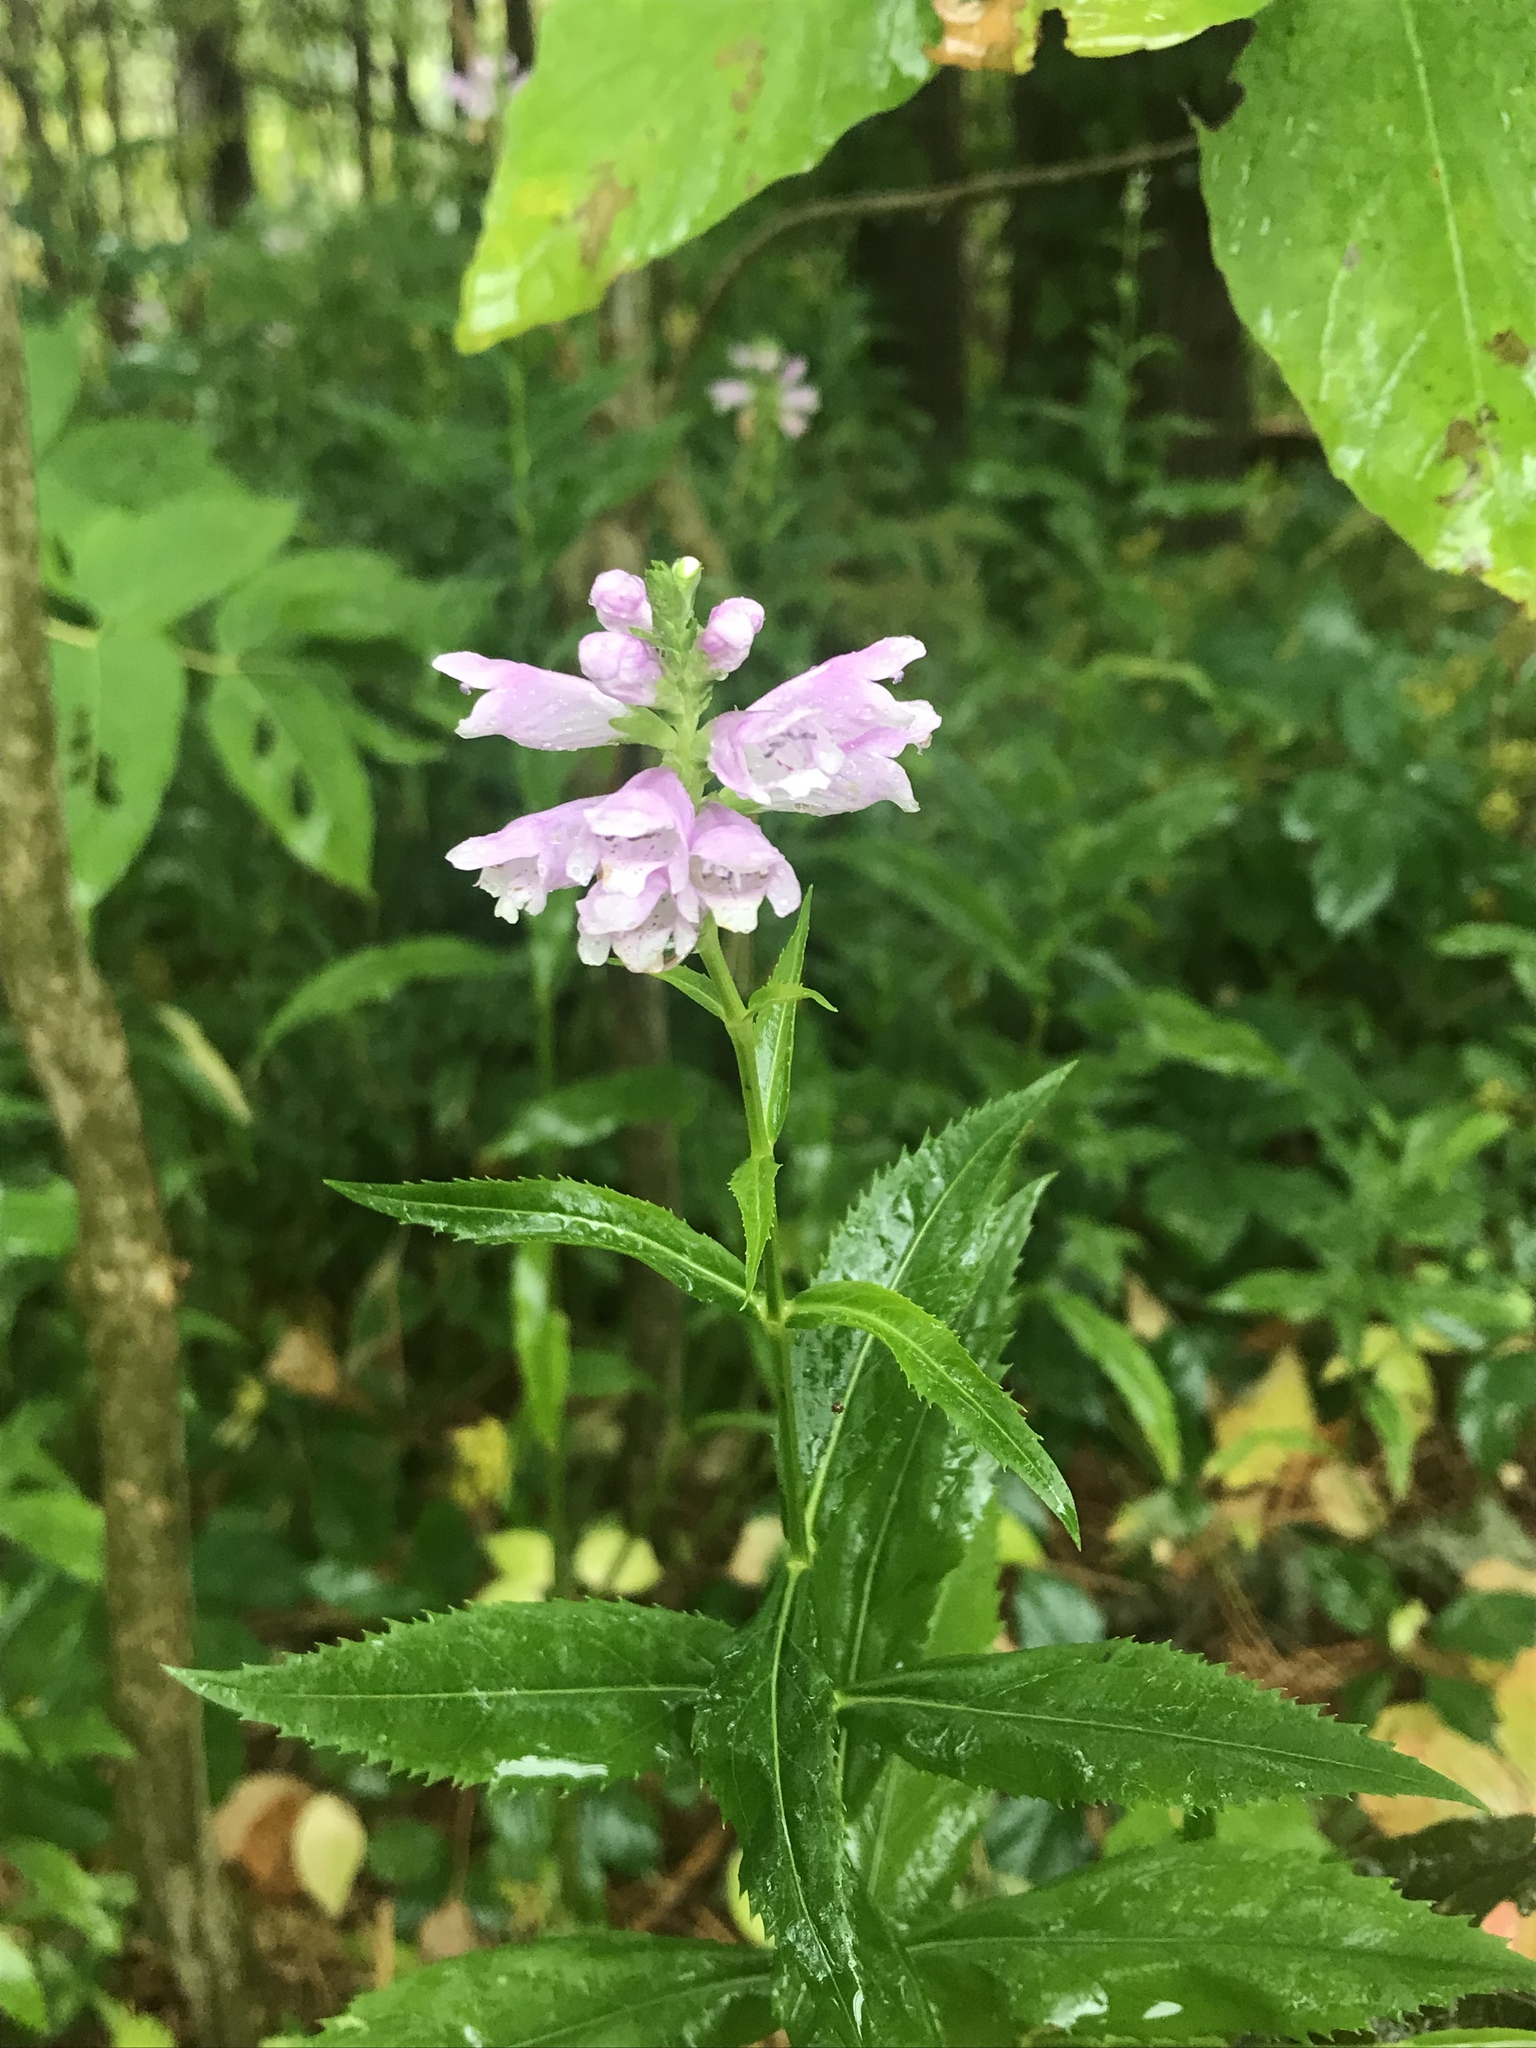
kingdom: Plantae
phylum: Tracheophyta
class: Magnoliopsida
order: Lamiales
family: Lamiaceae
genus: Physostegia
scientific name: Physostegia virginiana
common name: Obedient-plant
